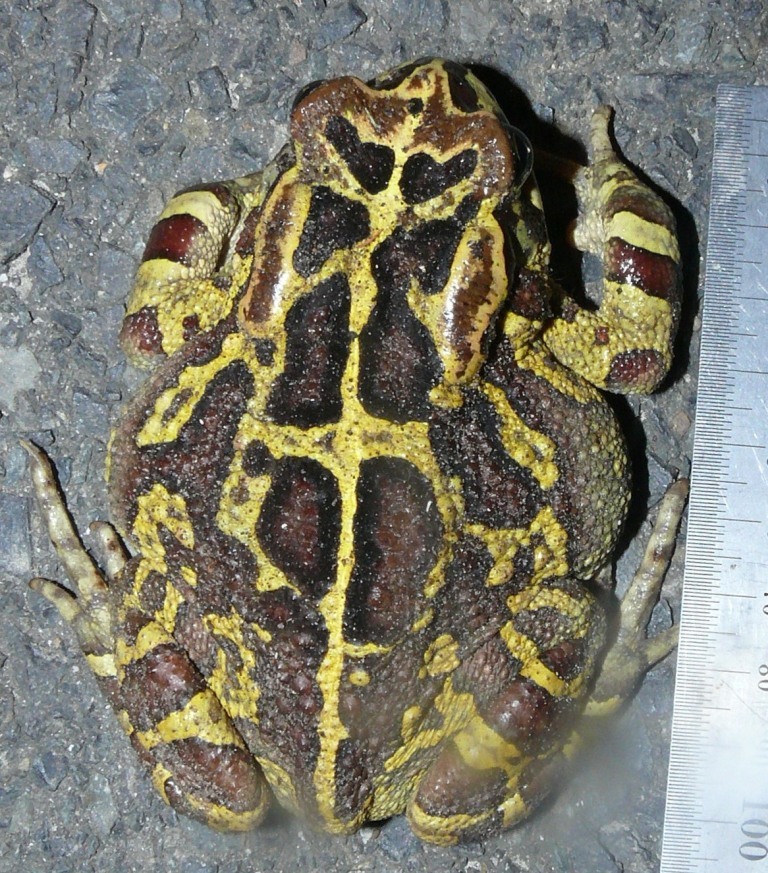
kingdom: Animalia
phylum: Chordata
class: Amphibia
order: Anura
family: Bufonidae
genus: Sclerophrys
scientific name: Sclerophrys pantherina
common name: Panther toad
